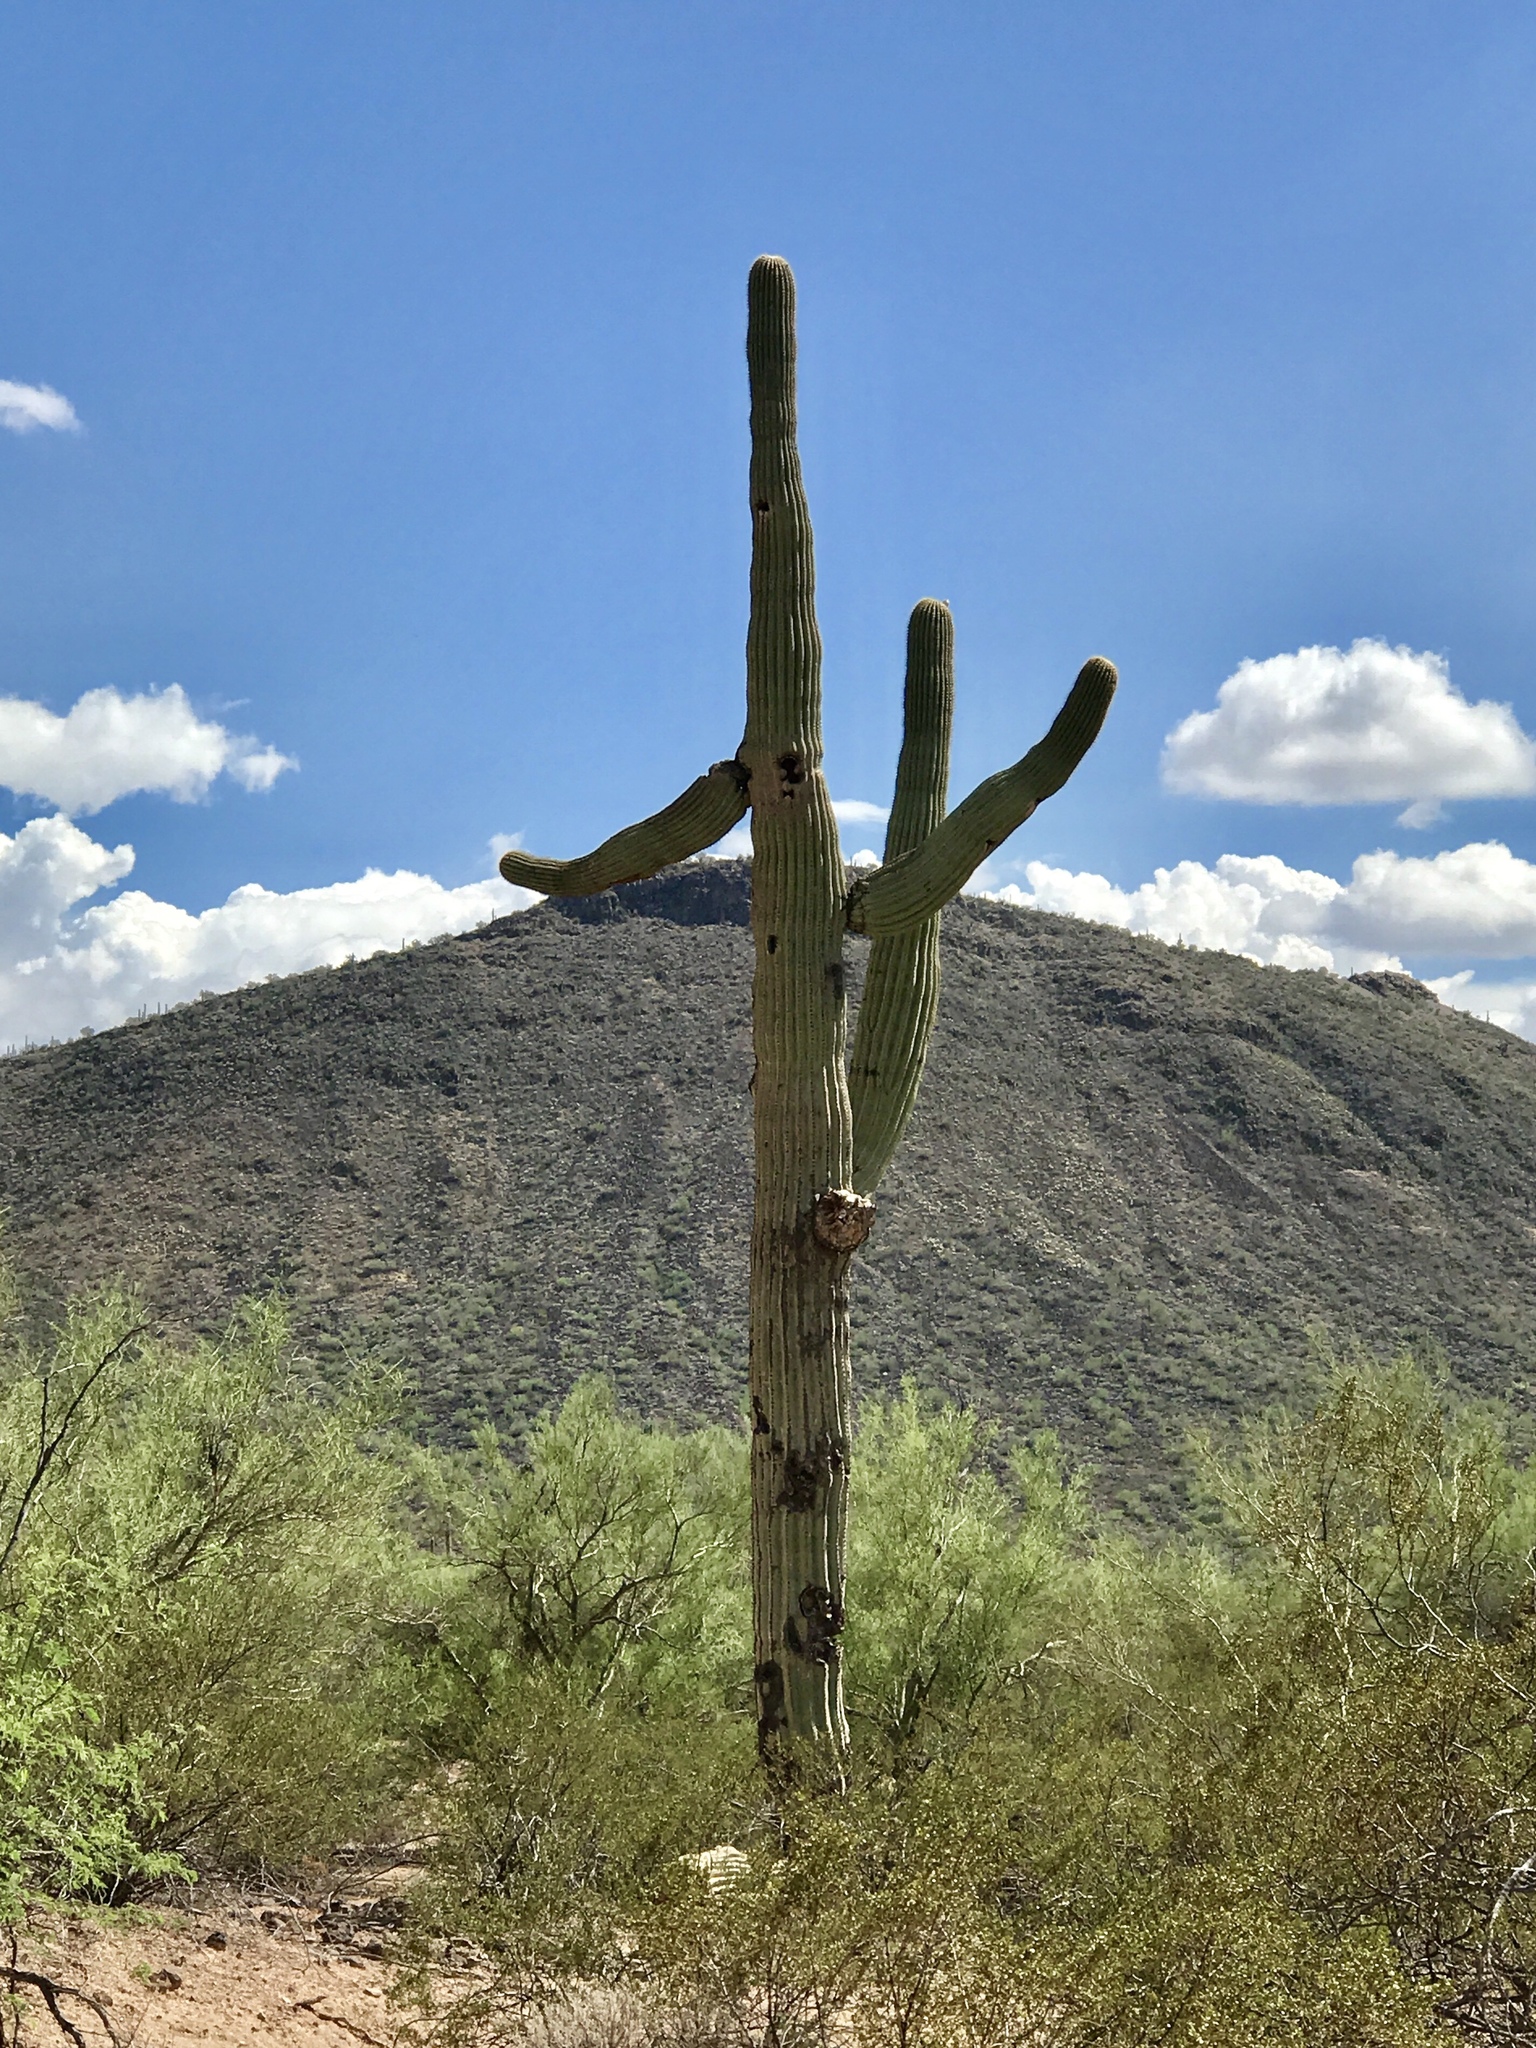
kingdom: Plantae
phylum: Tracheophyta
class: Magnoliopsida
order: Caryophyllales
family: Cactaceae
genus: Carnegiea
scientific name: Carnegiea gigantea
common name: Saguaro
